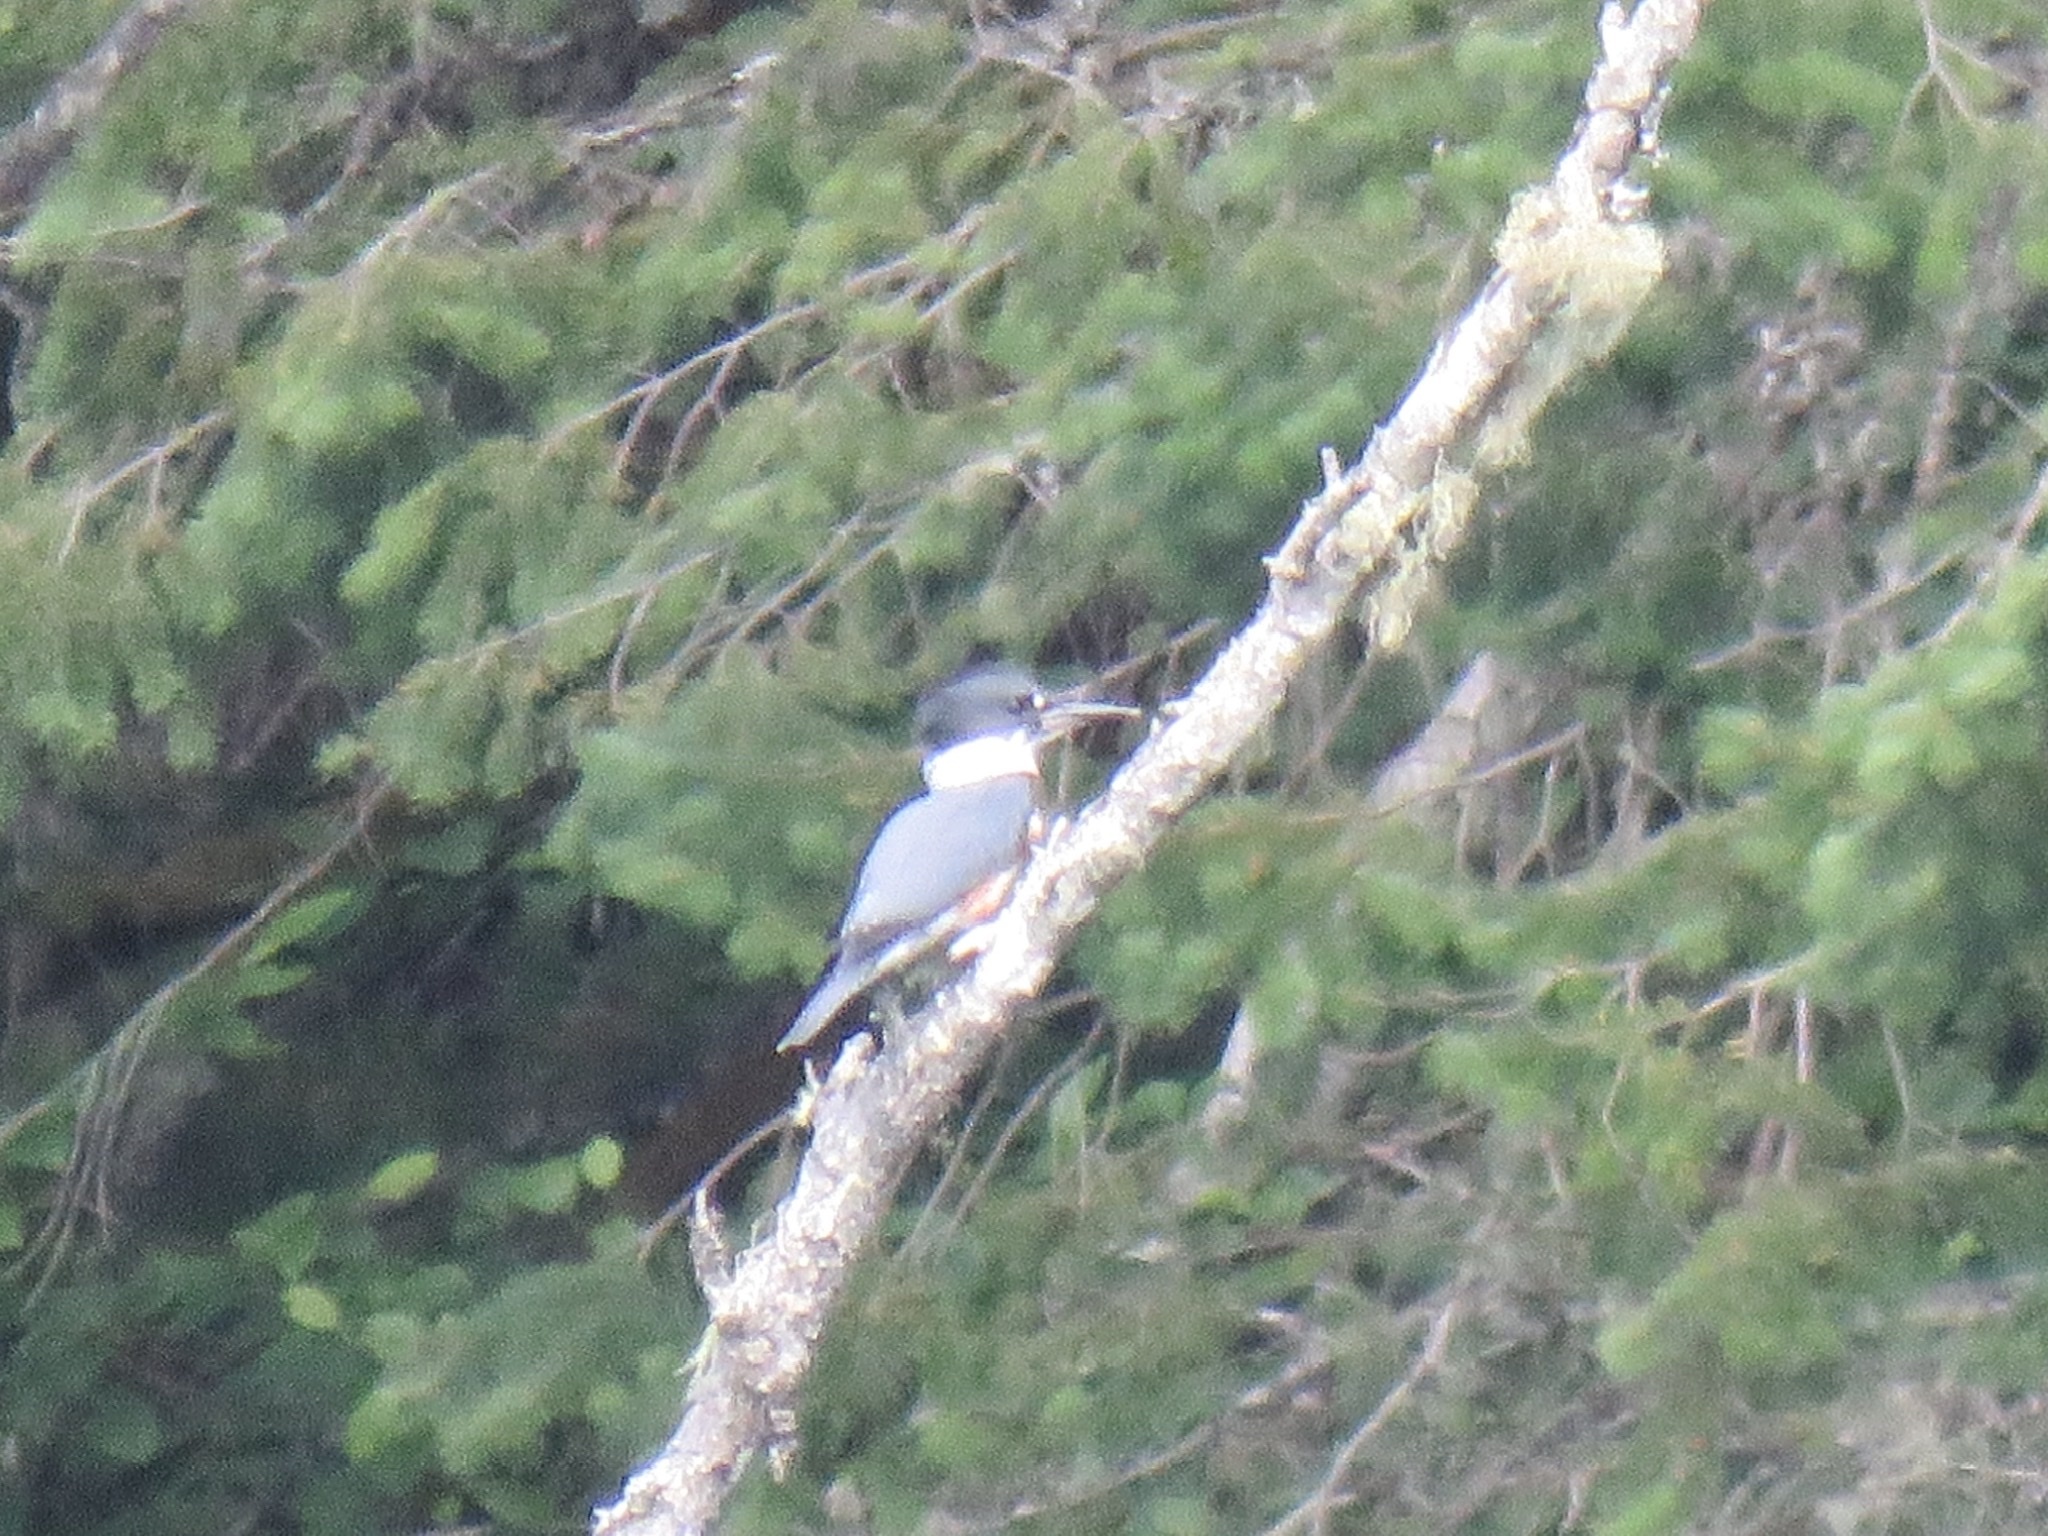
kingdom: Animalia
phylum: Chordata
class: Aves
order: Coraciiformes
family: Alcedinidae
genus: Megaceryle
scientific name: Megaceryle alcyon
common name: Belted kingfisher
